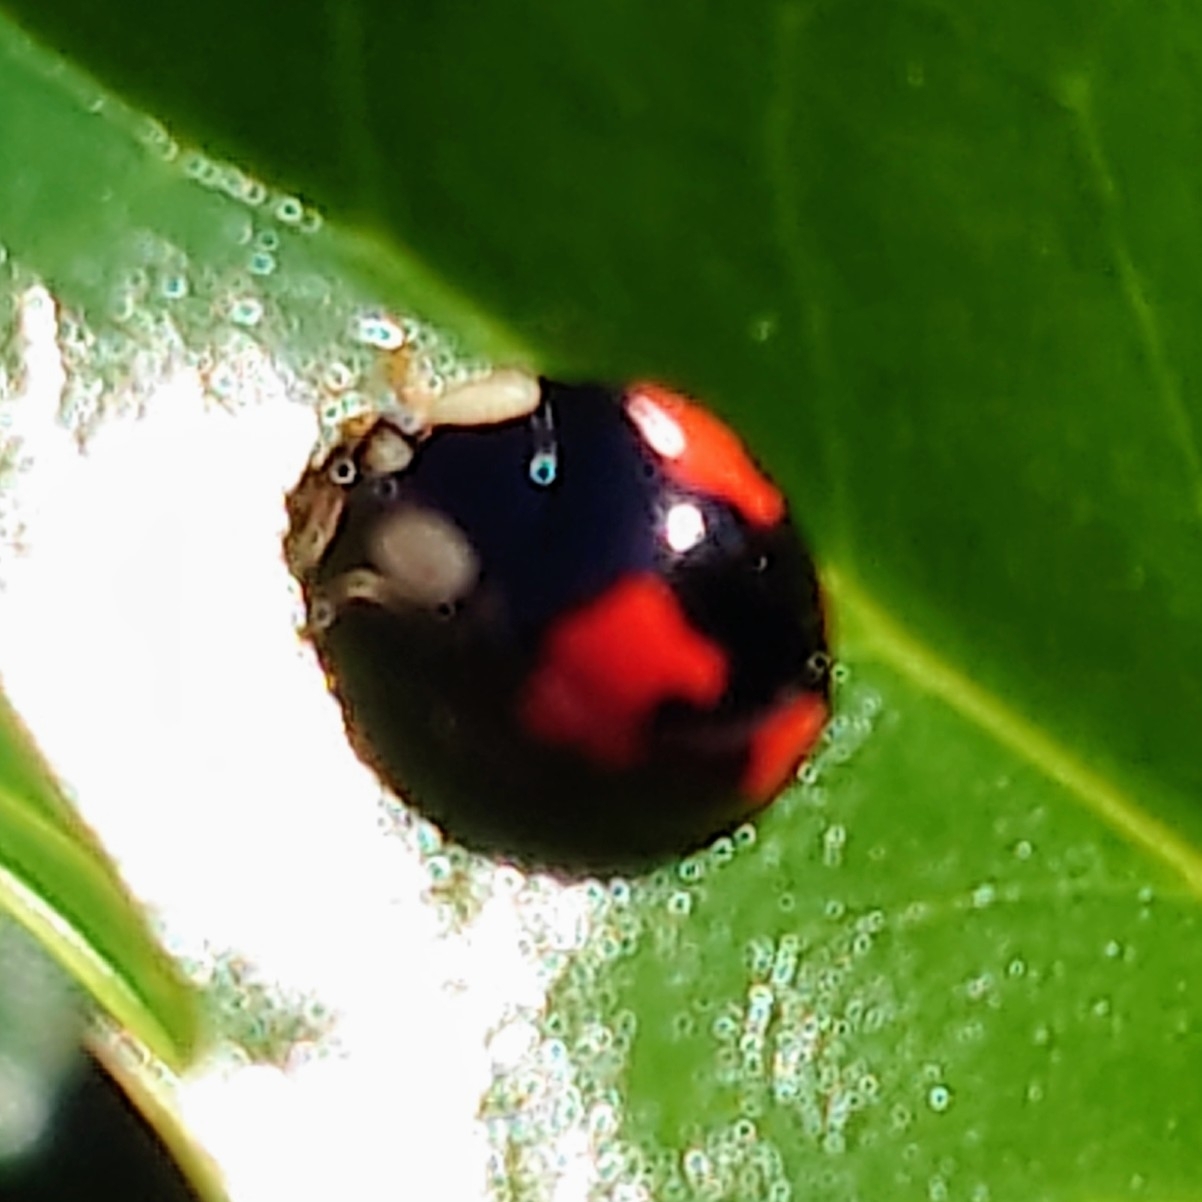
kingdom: Animalia
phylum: Arthropoda
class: Insecta
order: Coleoptera
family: Coccinellidae
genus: Harmonia
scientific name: Harmonia axyridis
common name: Harlequin ladybird
